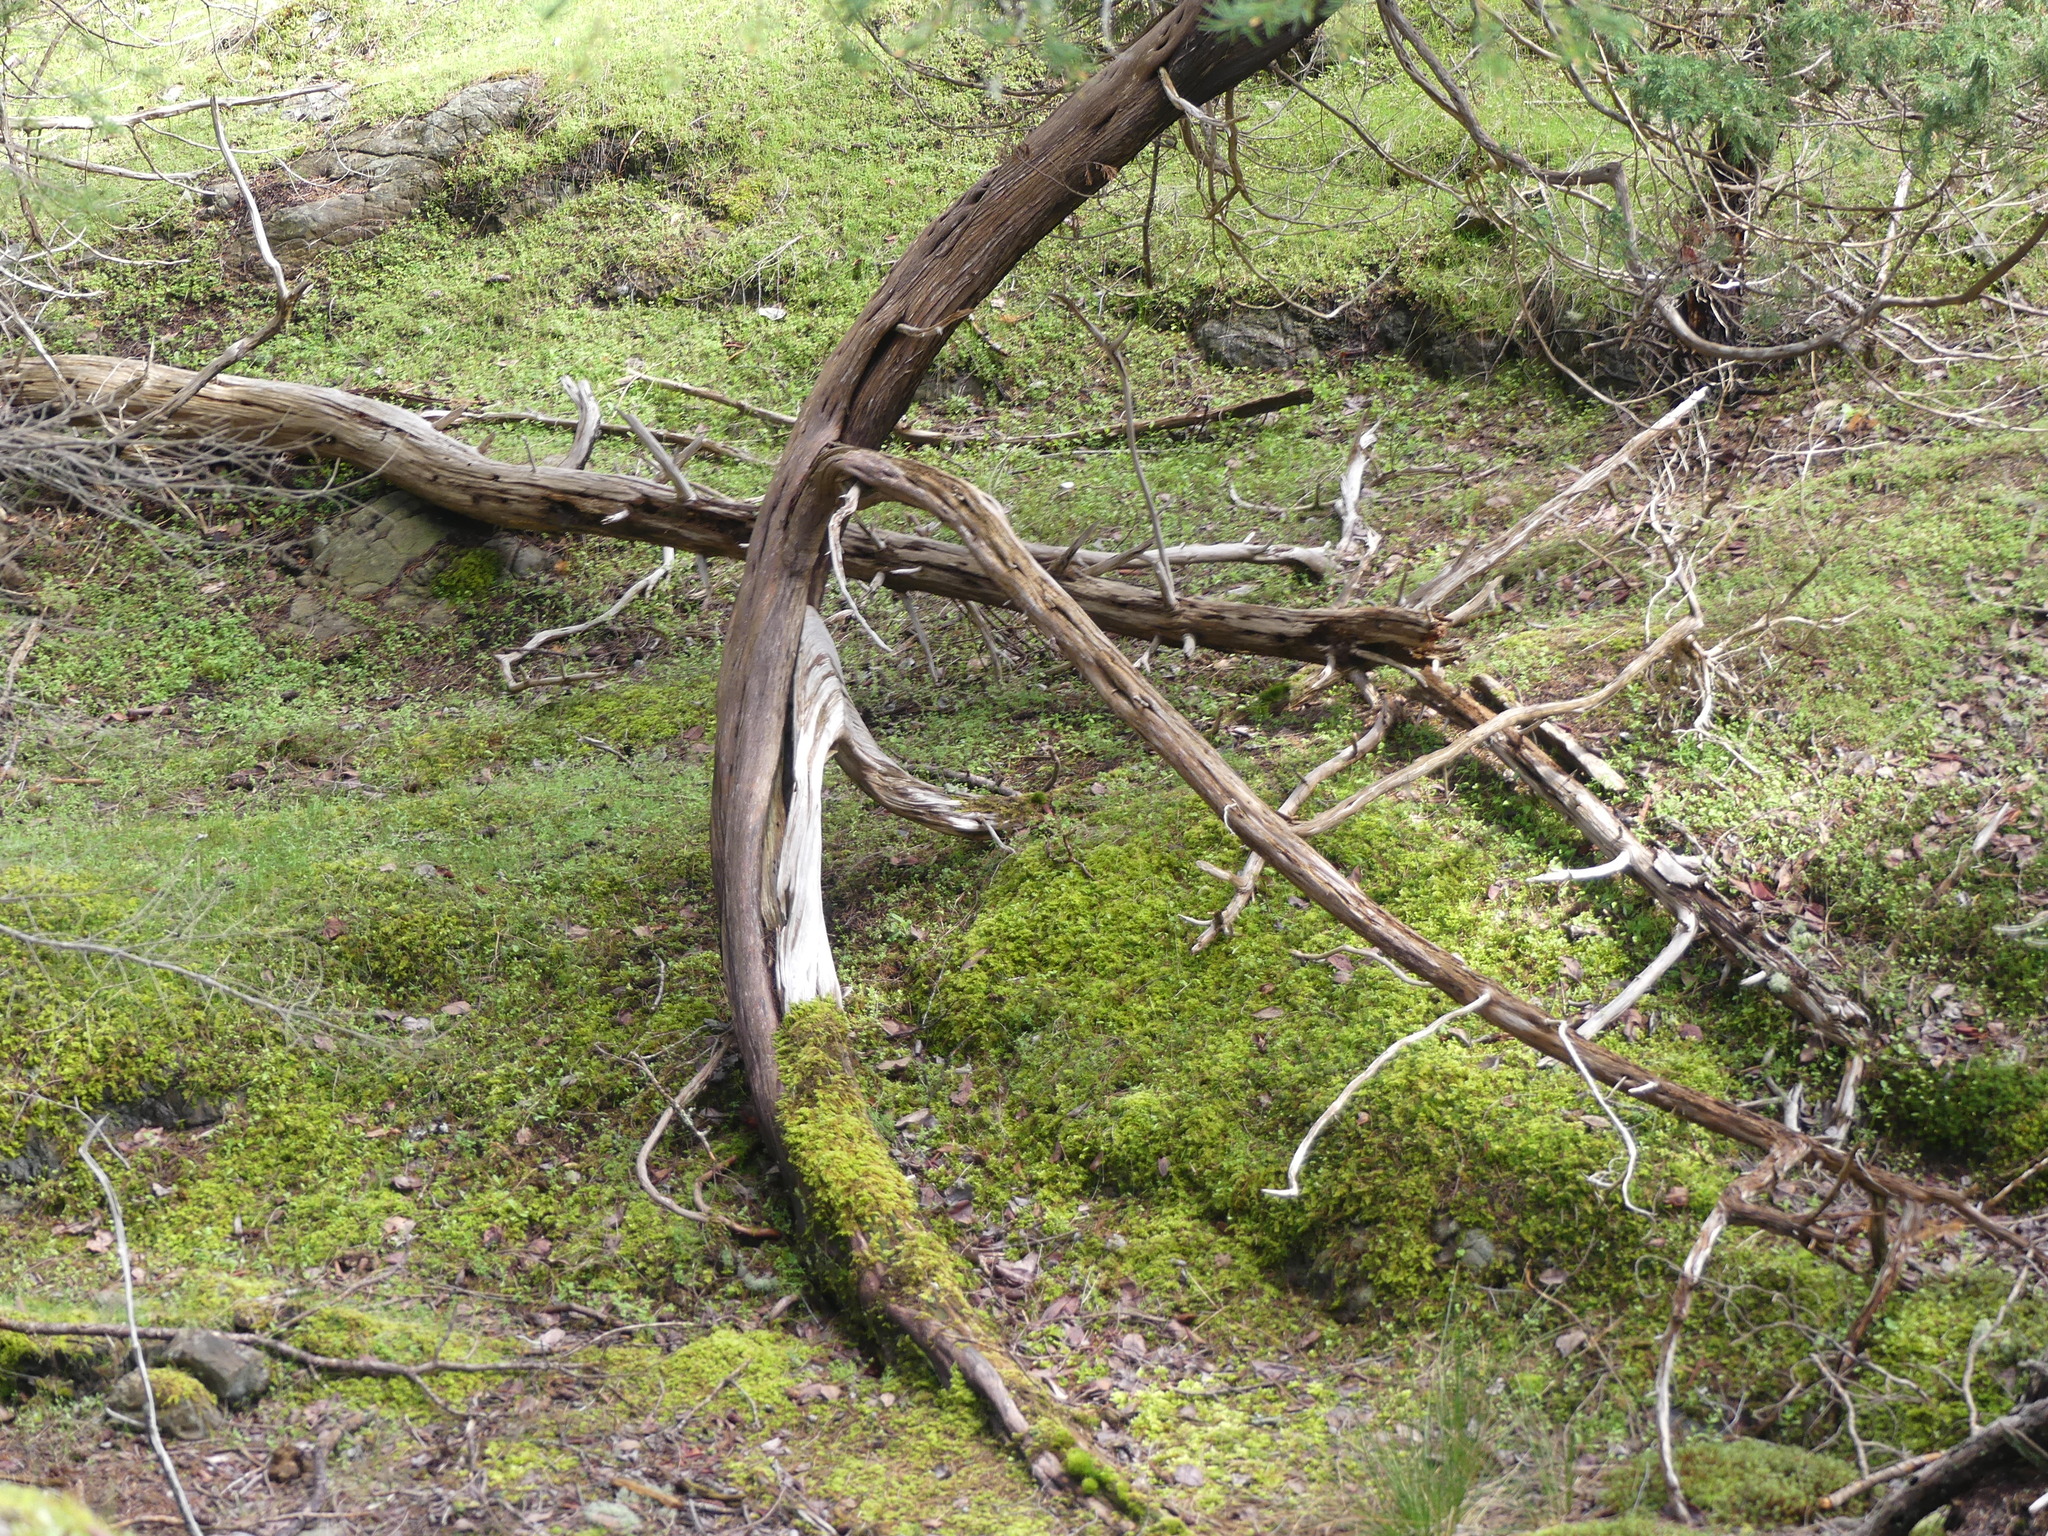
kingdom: Plantae
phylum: Tracheophyta
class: Pinopsida
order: Pinales
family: Cupressaceae
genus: Juniperus
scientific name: Juniperus scopulorum
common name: Rocky mountain juniper
